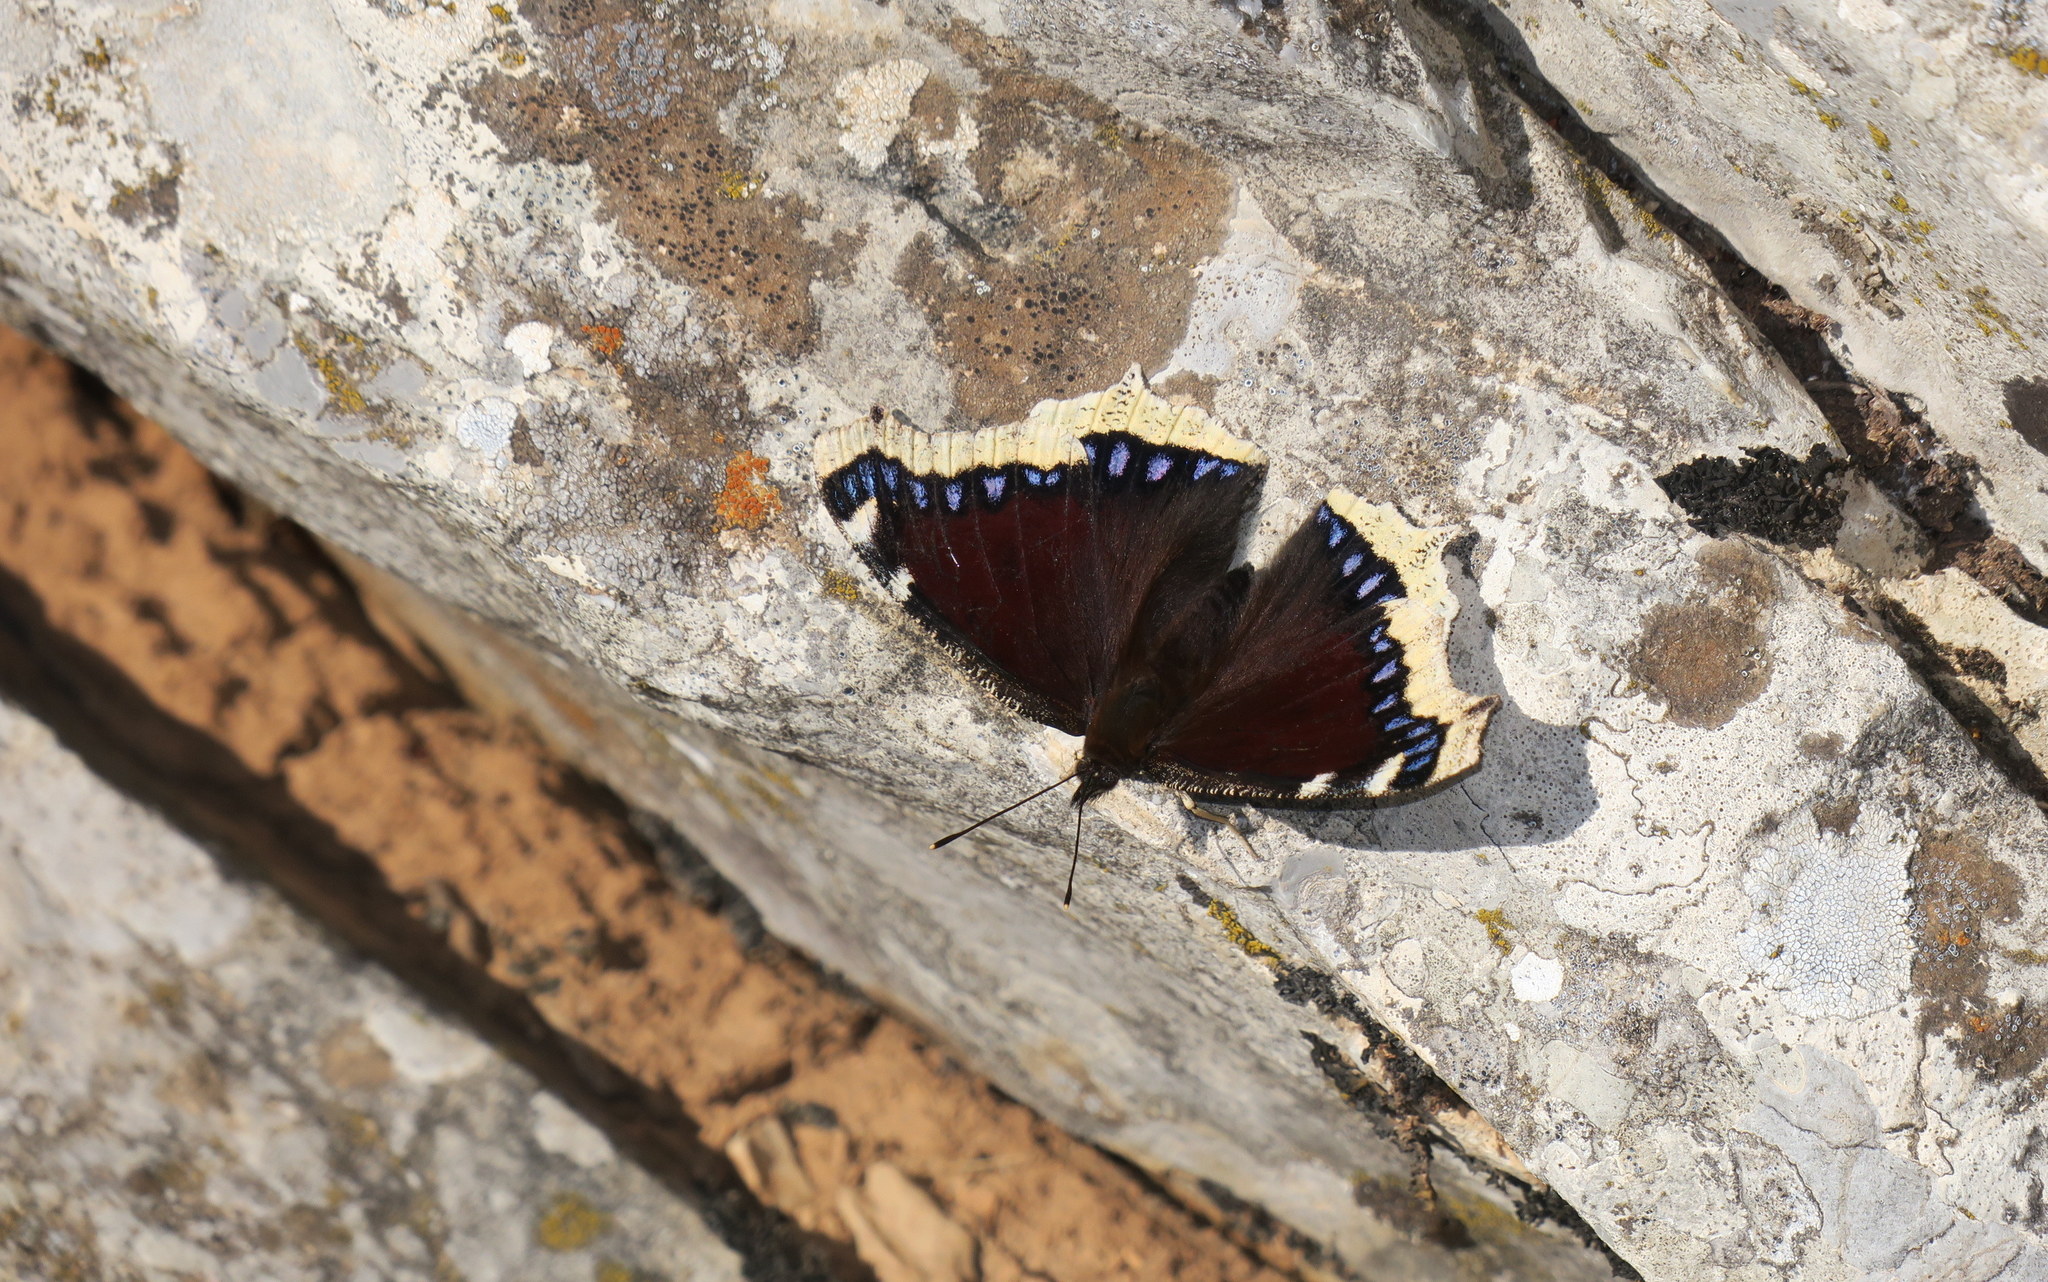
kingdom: Animalia
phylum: Arthropoda
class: Insecta
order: Lepidoptera
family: Nymphalidae
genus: Nymphalis
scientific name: Nymphalis antiopa
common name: Camberwell beauty
